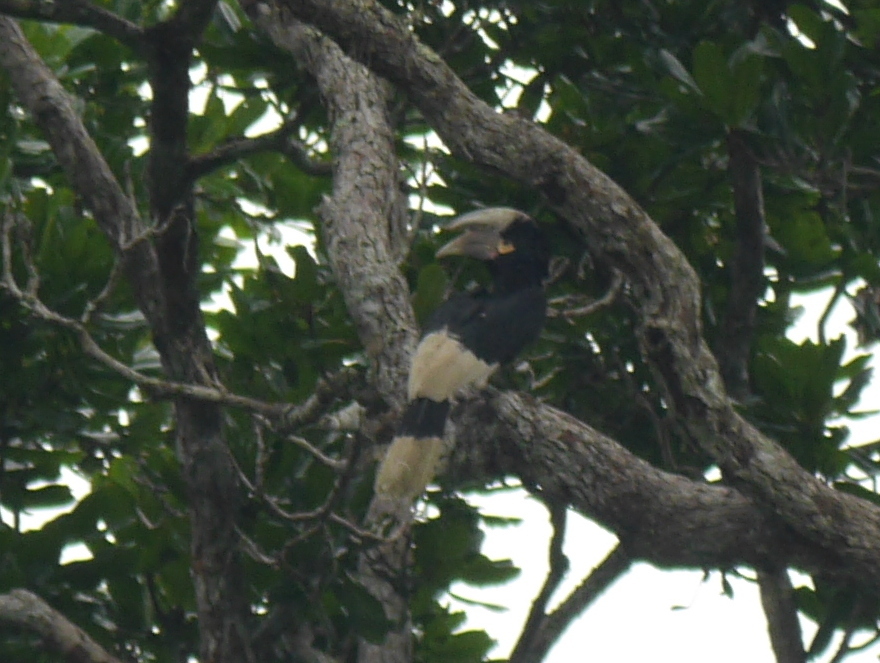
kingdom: Animalia
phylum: Chordata
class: Aves
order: Bucerotiformes
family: Bucerotidae
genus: Bycanistes
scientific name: Bycanistes albotibialis
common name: White-thighed hornbill
